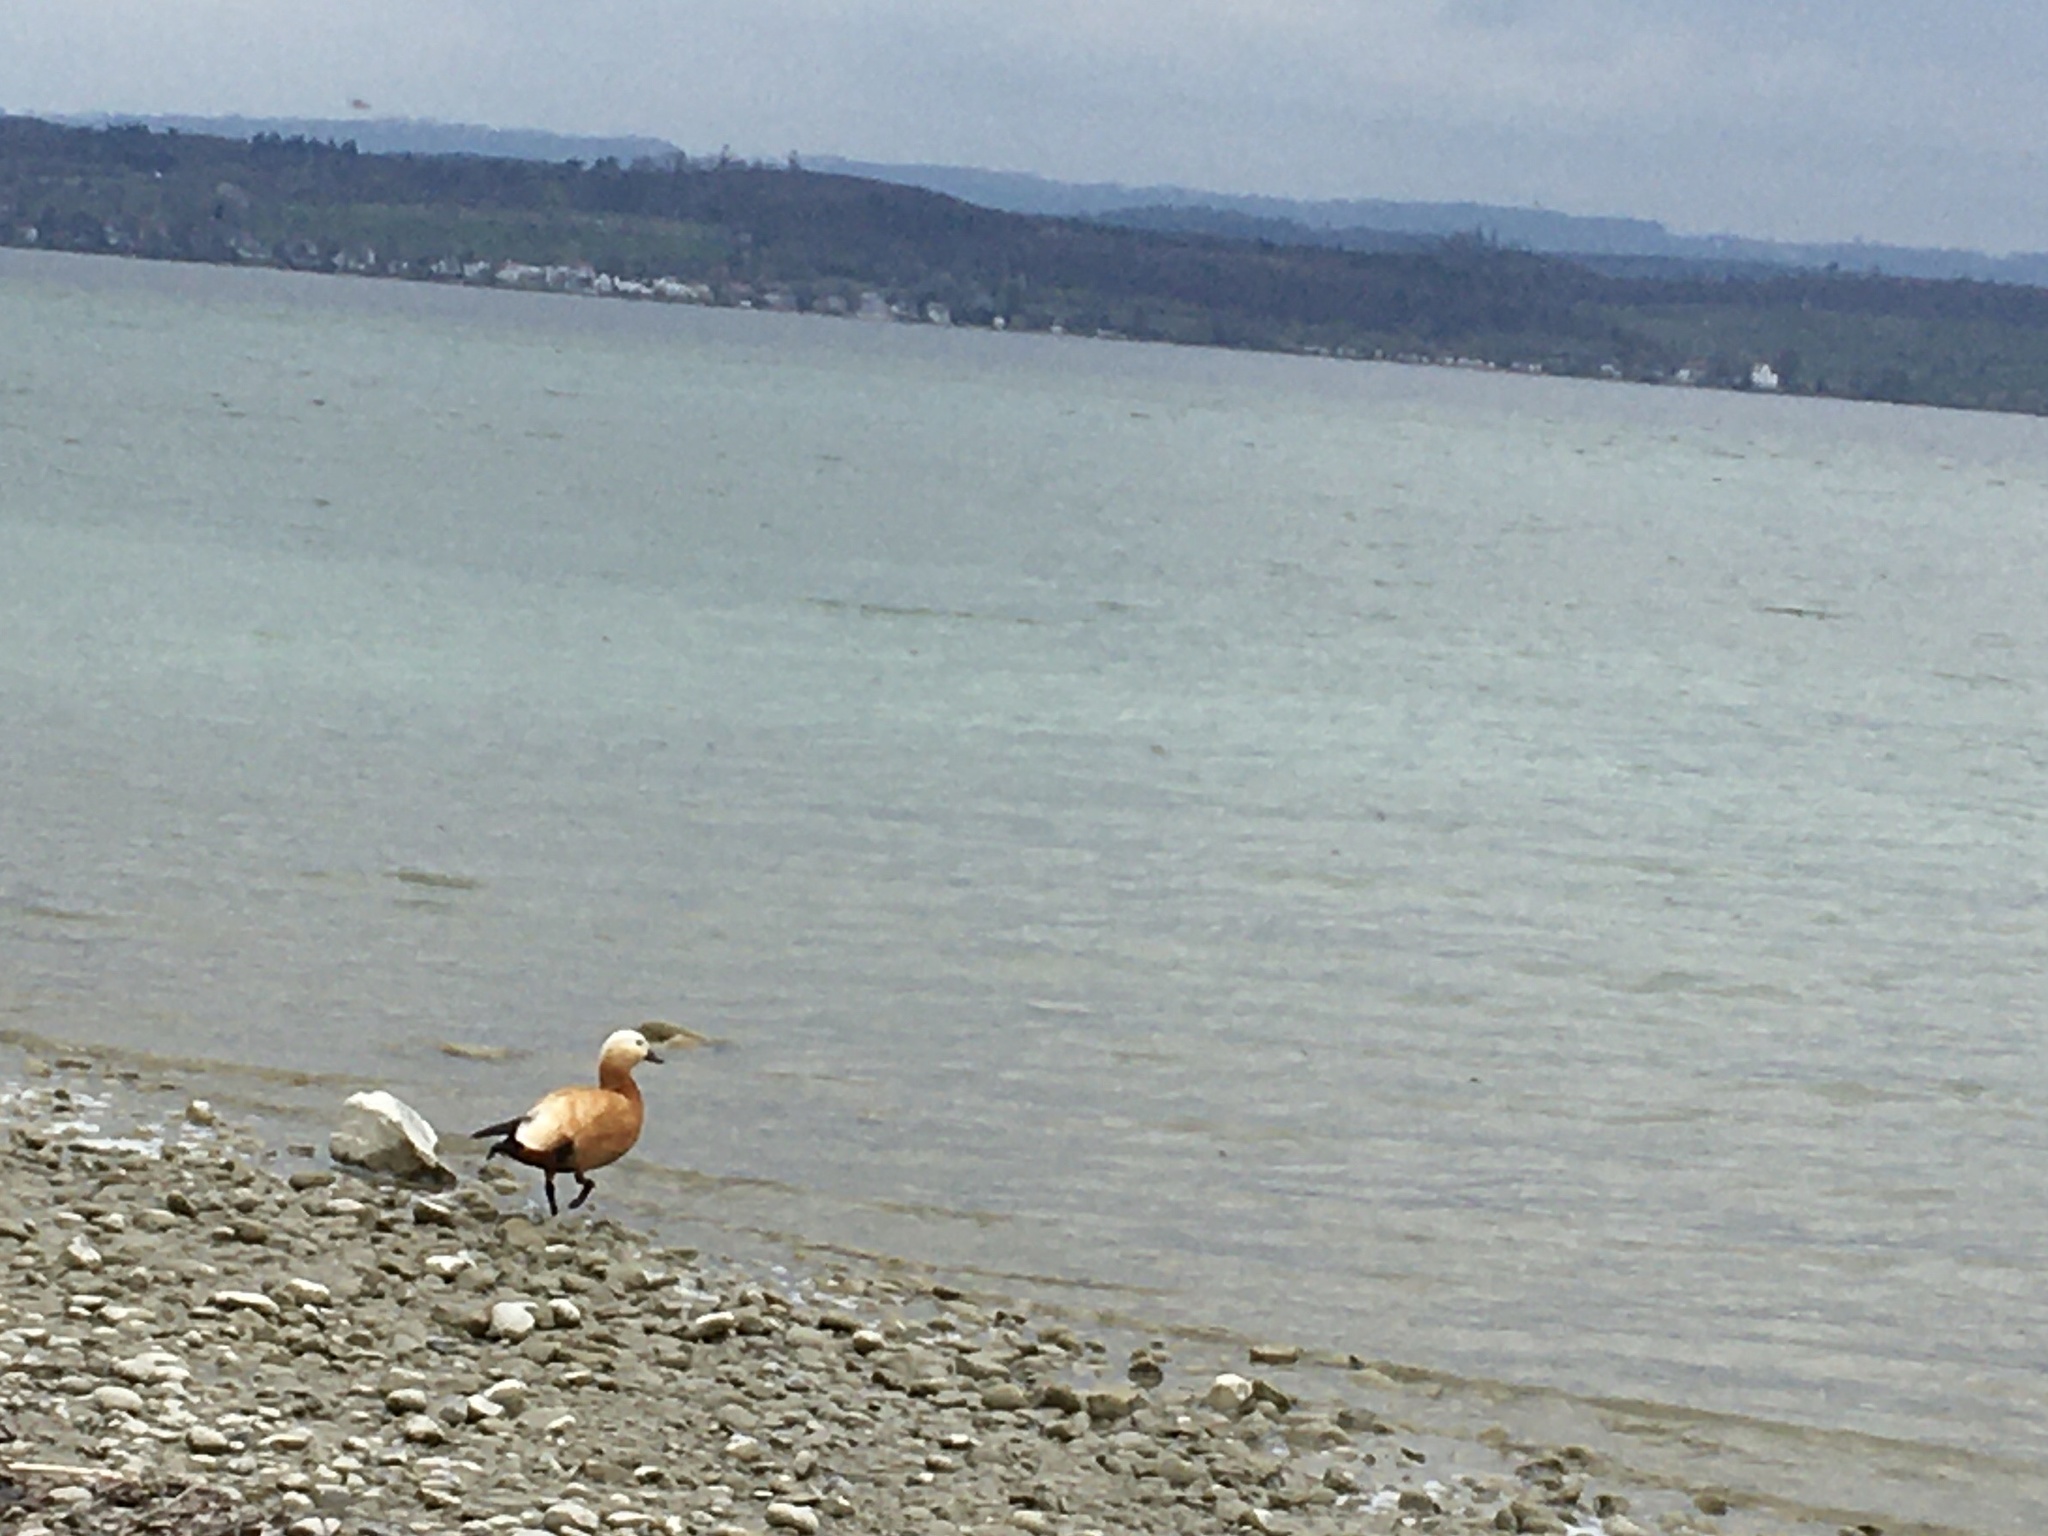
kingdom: Animalia
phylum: Chordata
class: Aves
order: Anseriformes
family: Anatidae
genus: Tadorna
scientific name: Tadorna ferruginea
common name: Ruddy shelduck
